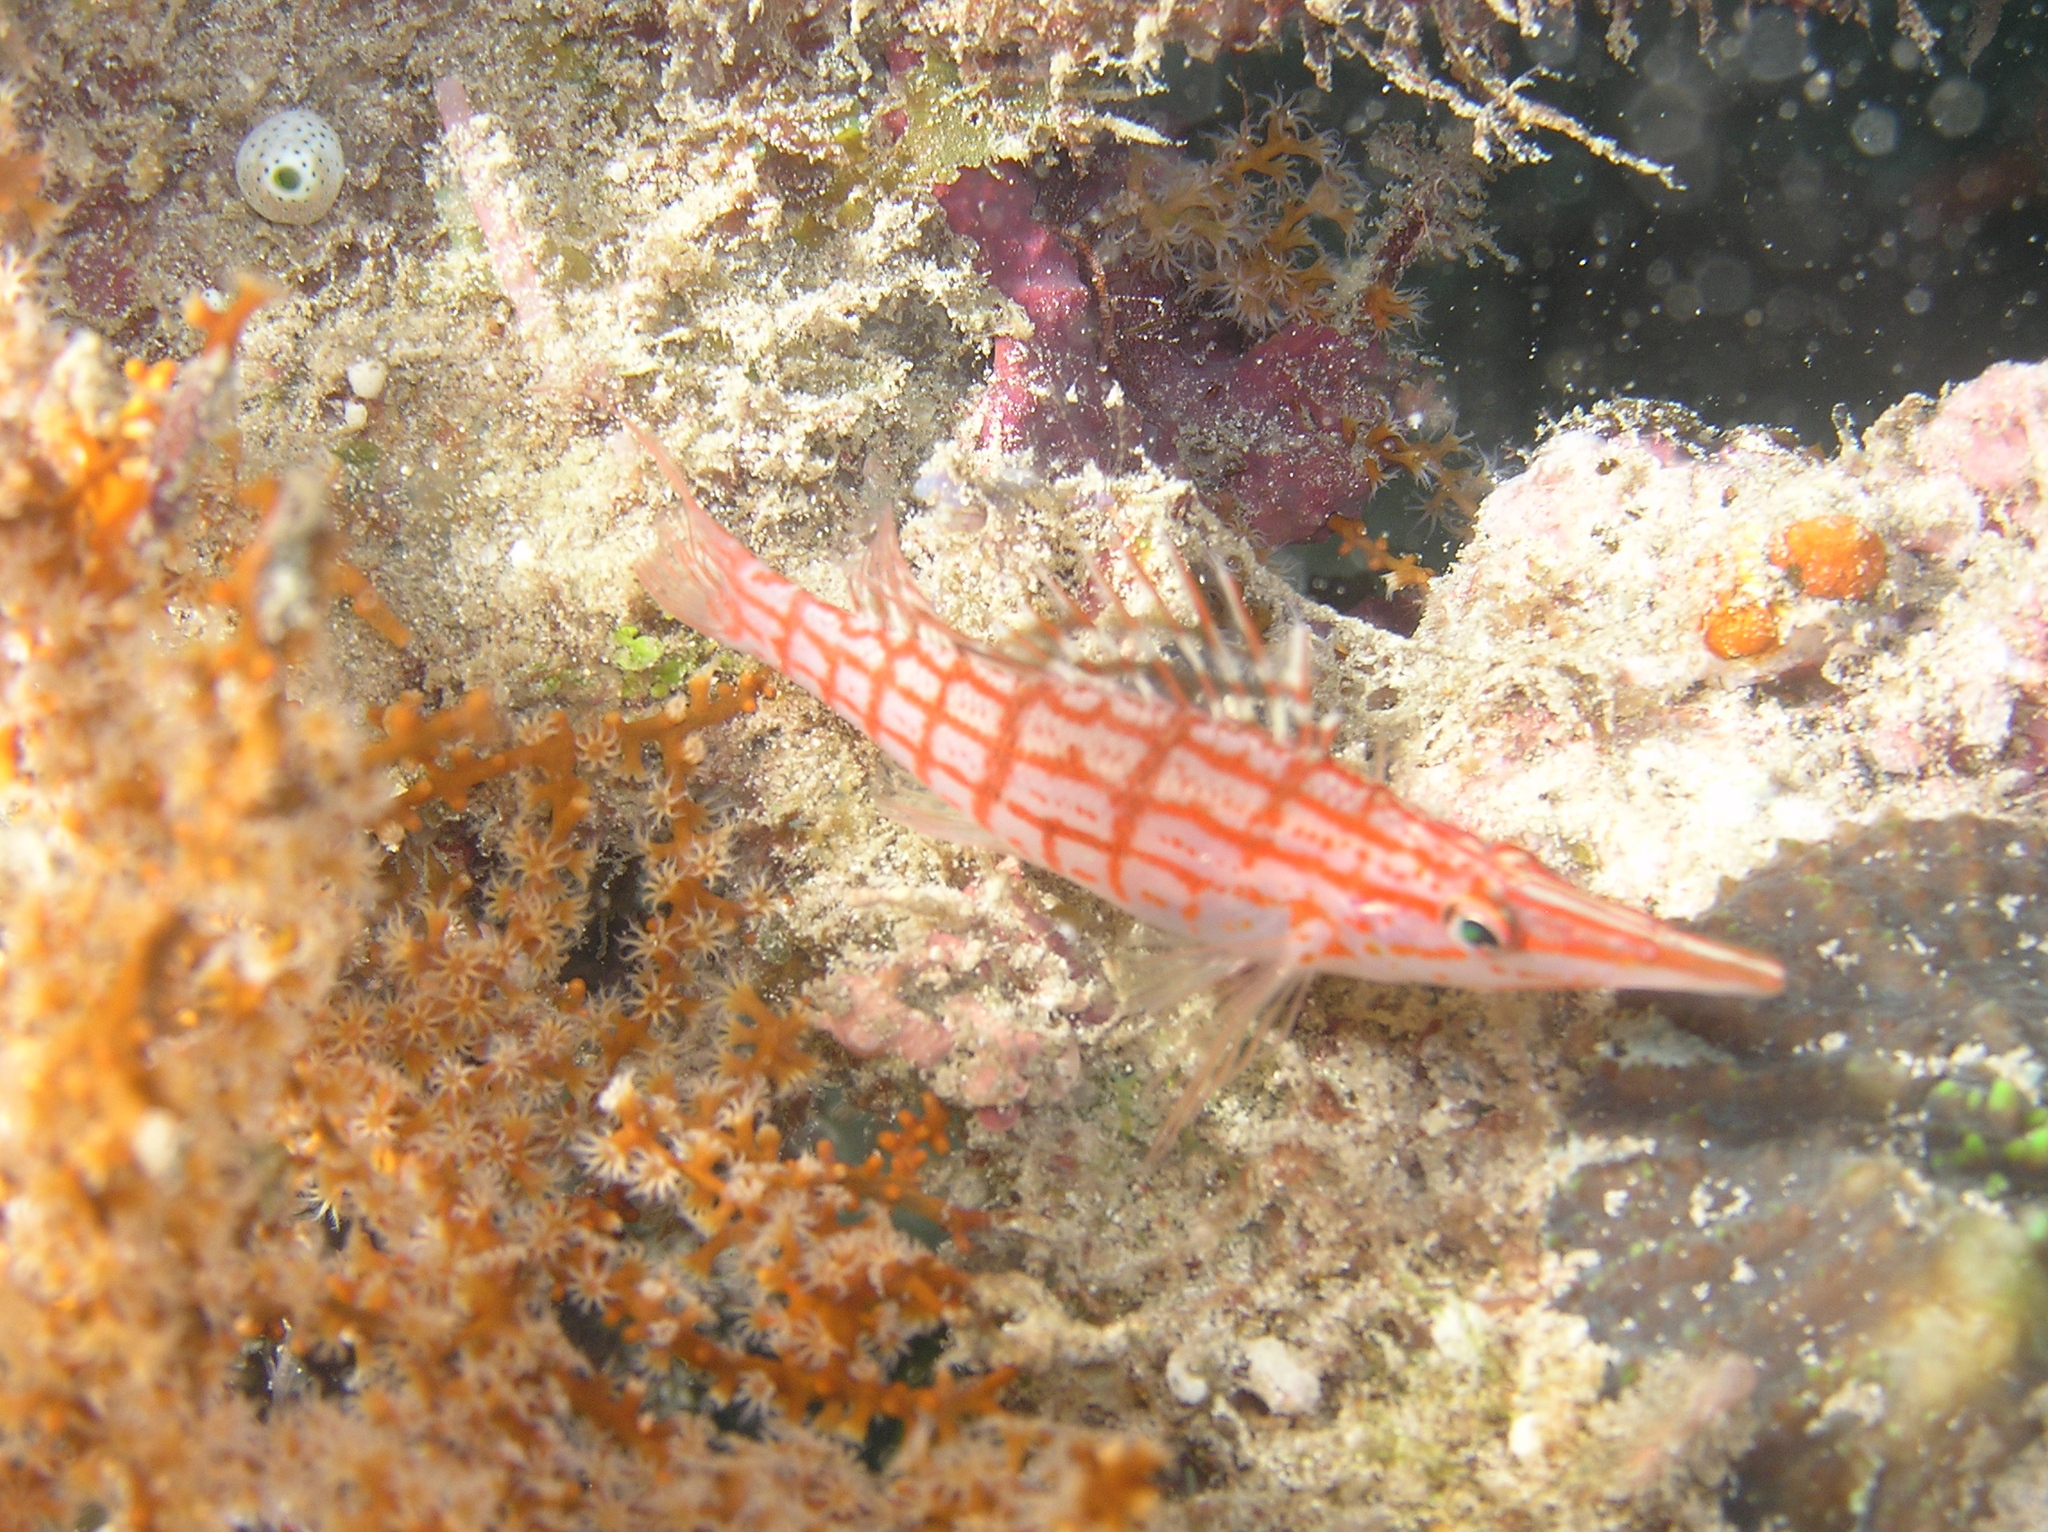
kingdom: Animalia
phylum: Chordata
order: Perciformes
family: Cirrhitidae
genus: Oxycirrhites
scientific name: Oxycirrhites typus
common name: Longnose hawkfish
